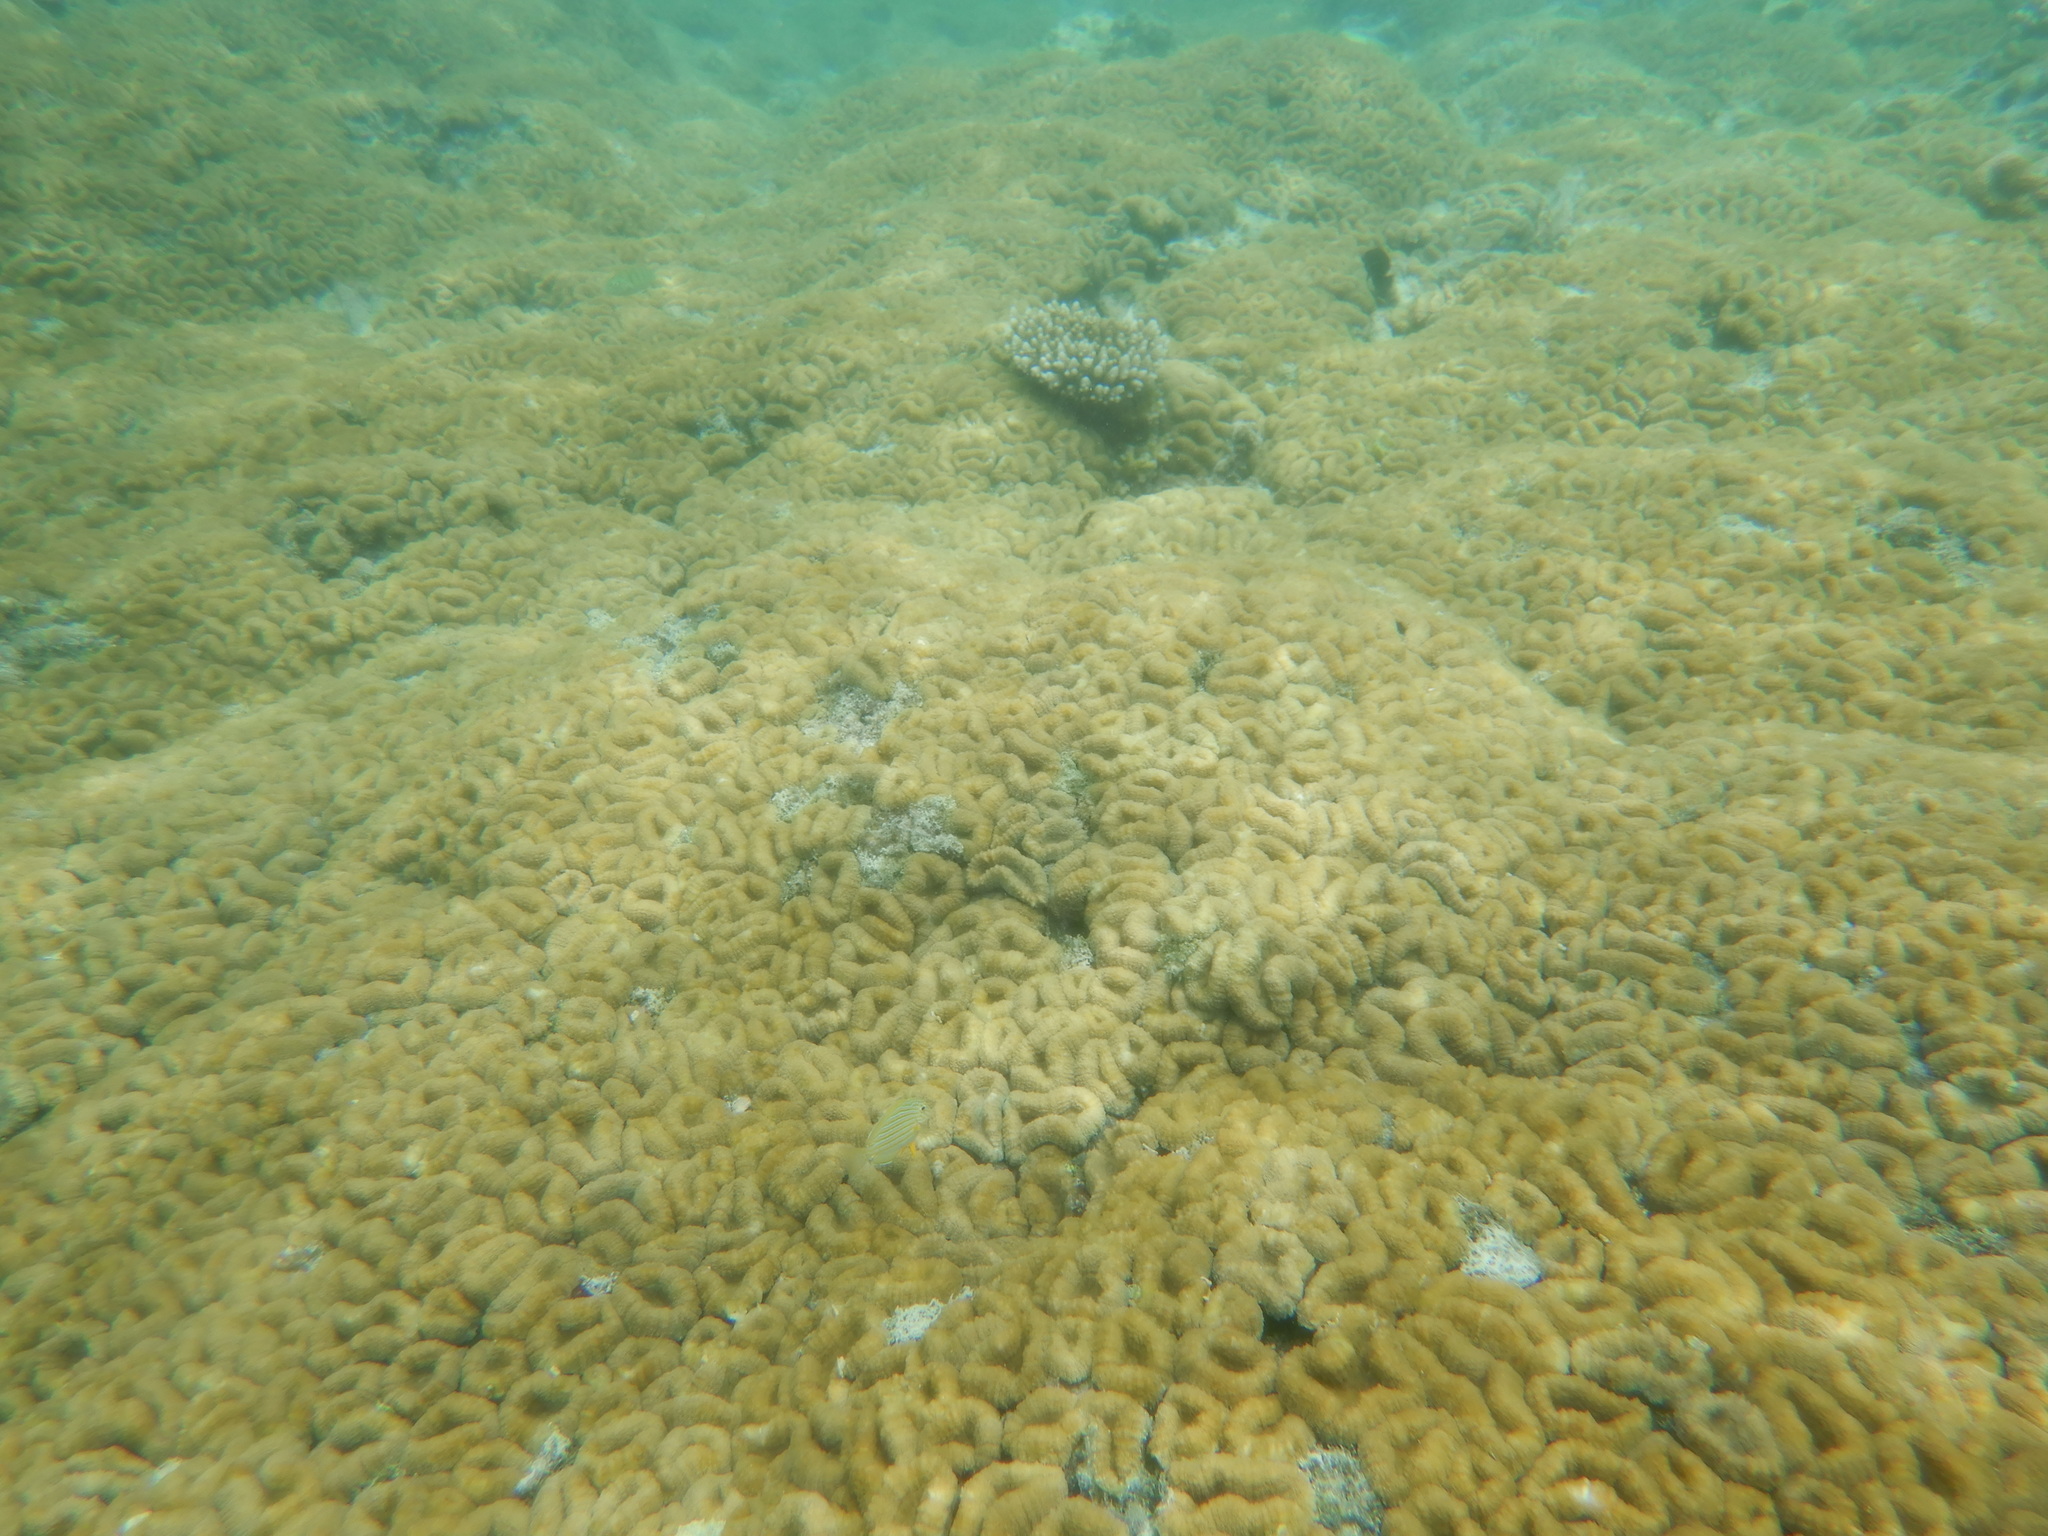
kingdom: Animalia
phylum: Chordata
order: Perciformes
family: Acanthuridae
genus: Acanthurus
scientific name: Acanthurus lineatus
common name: Striped surgeonfish
